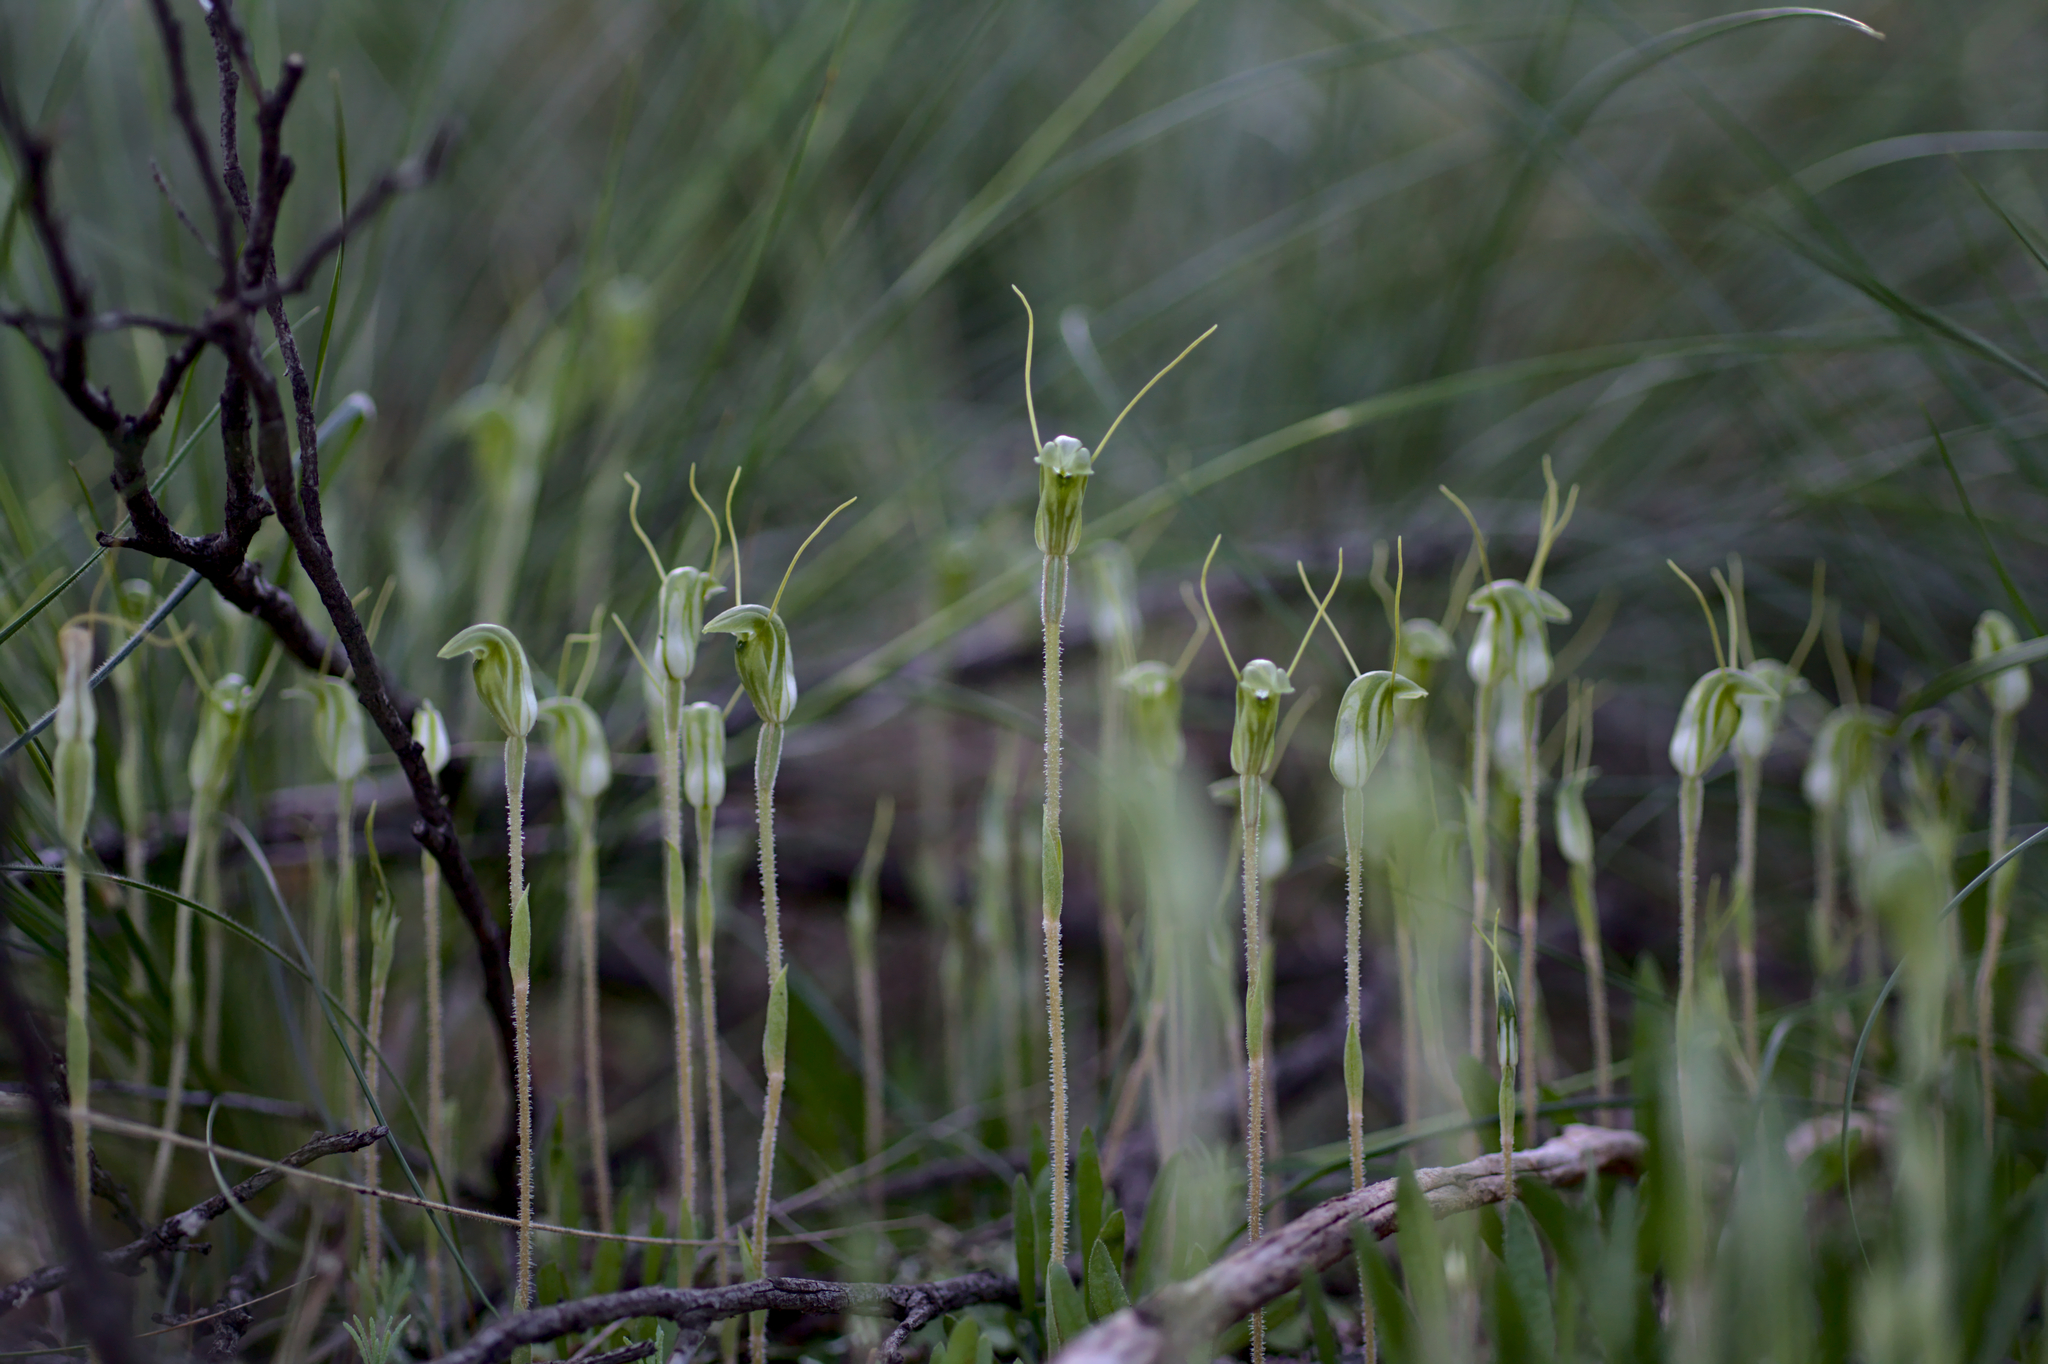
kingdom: Plantae
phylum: Tracheophyta
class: Liliopsida
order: Asparagales
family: Orchidaceae
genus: Pterostylis
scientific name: Pterostylis setulosa
